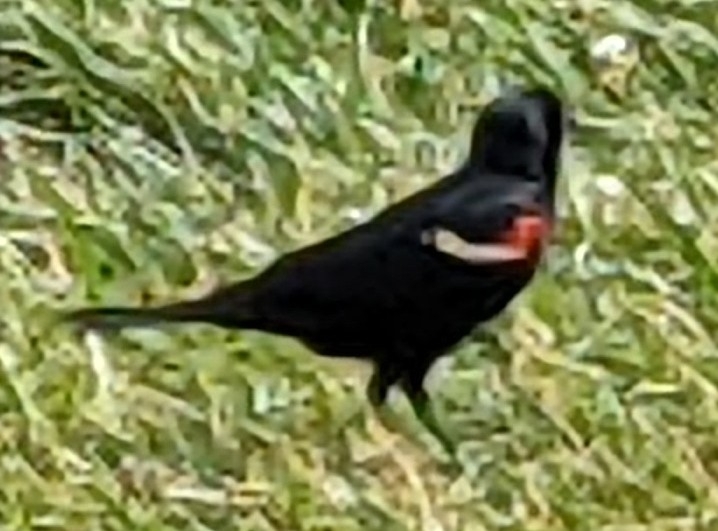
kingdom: Animalia
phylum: Chordata
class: Aves
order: Passeriformes
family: Icteridae
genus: Agelaius
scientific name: Agelaius phoeniceus
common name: Red-winged blackbird
